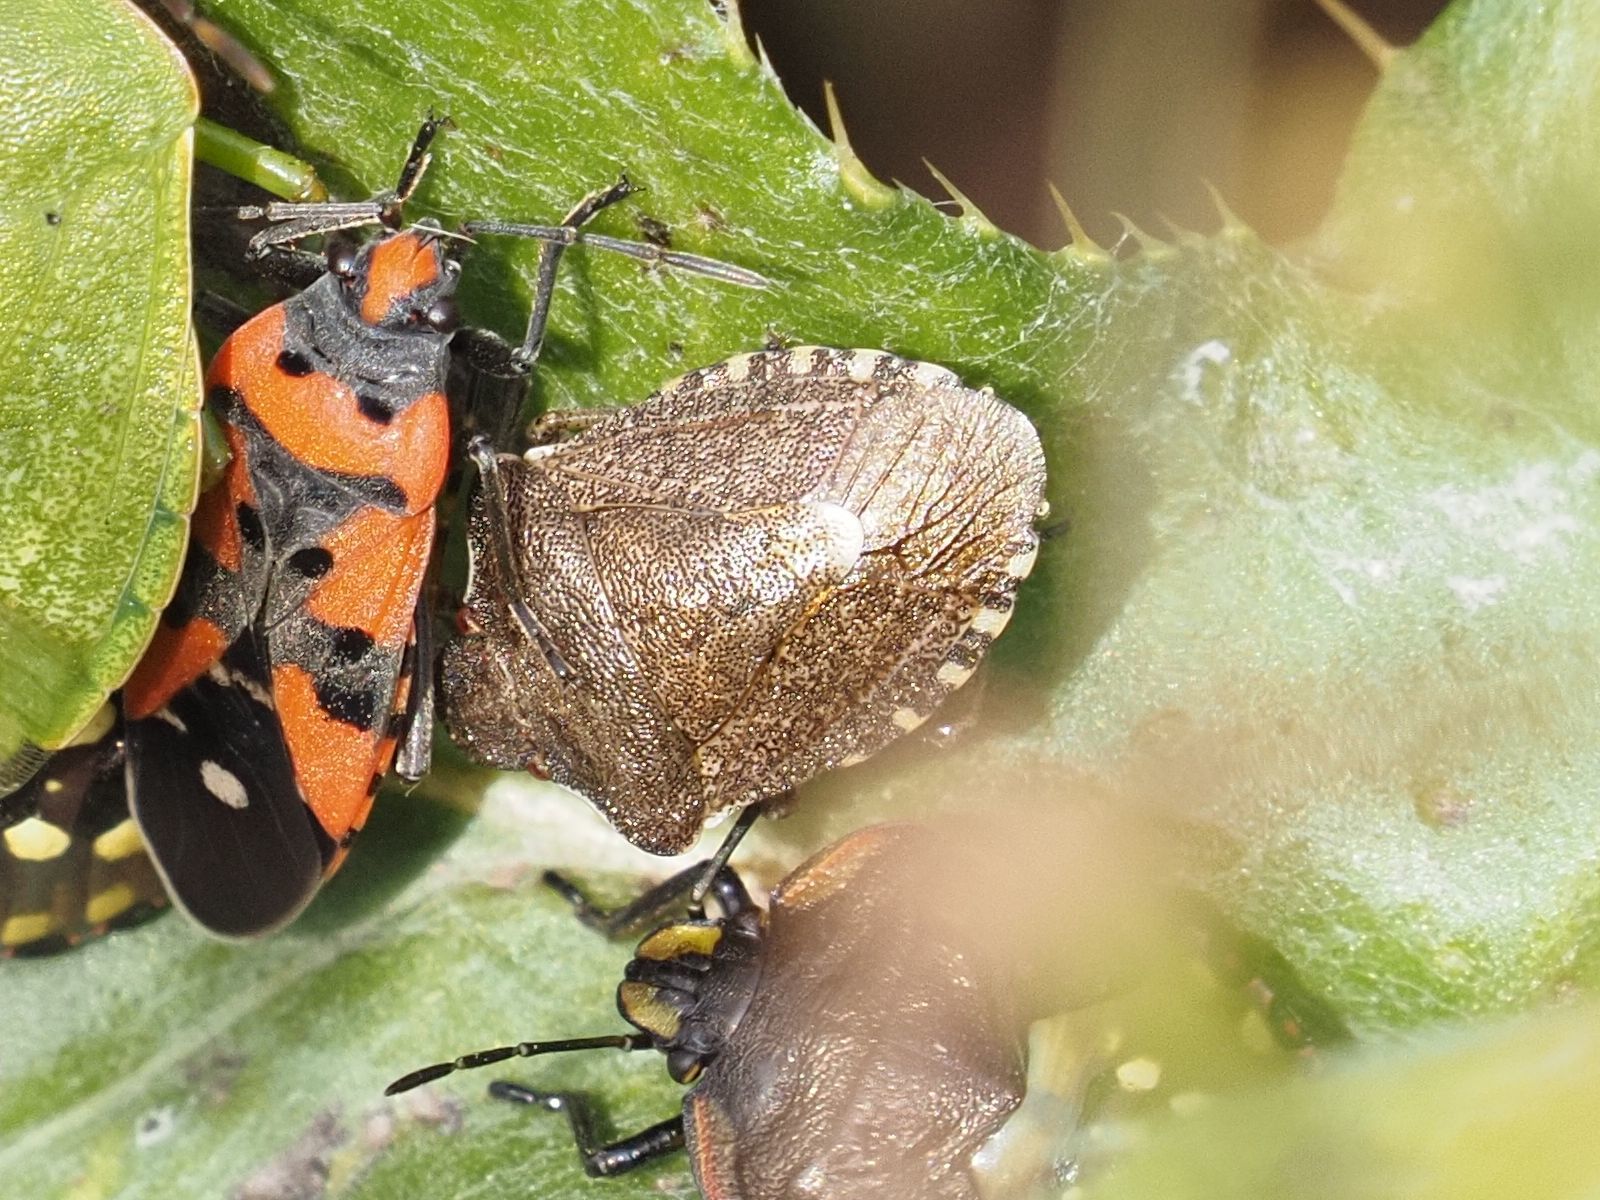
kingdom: Animalia
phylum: Arthropoda
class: Insecta
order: Hemiptera
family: Pentatomidae
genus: Holcostethus
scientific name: Holcostethus strictus
